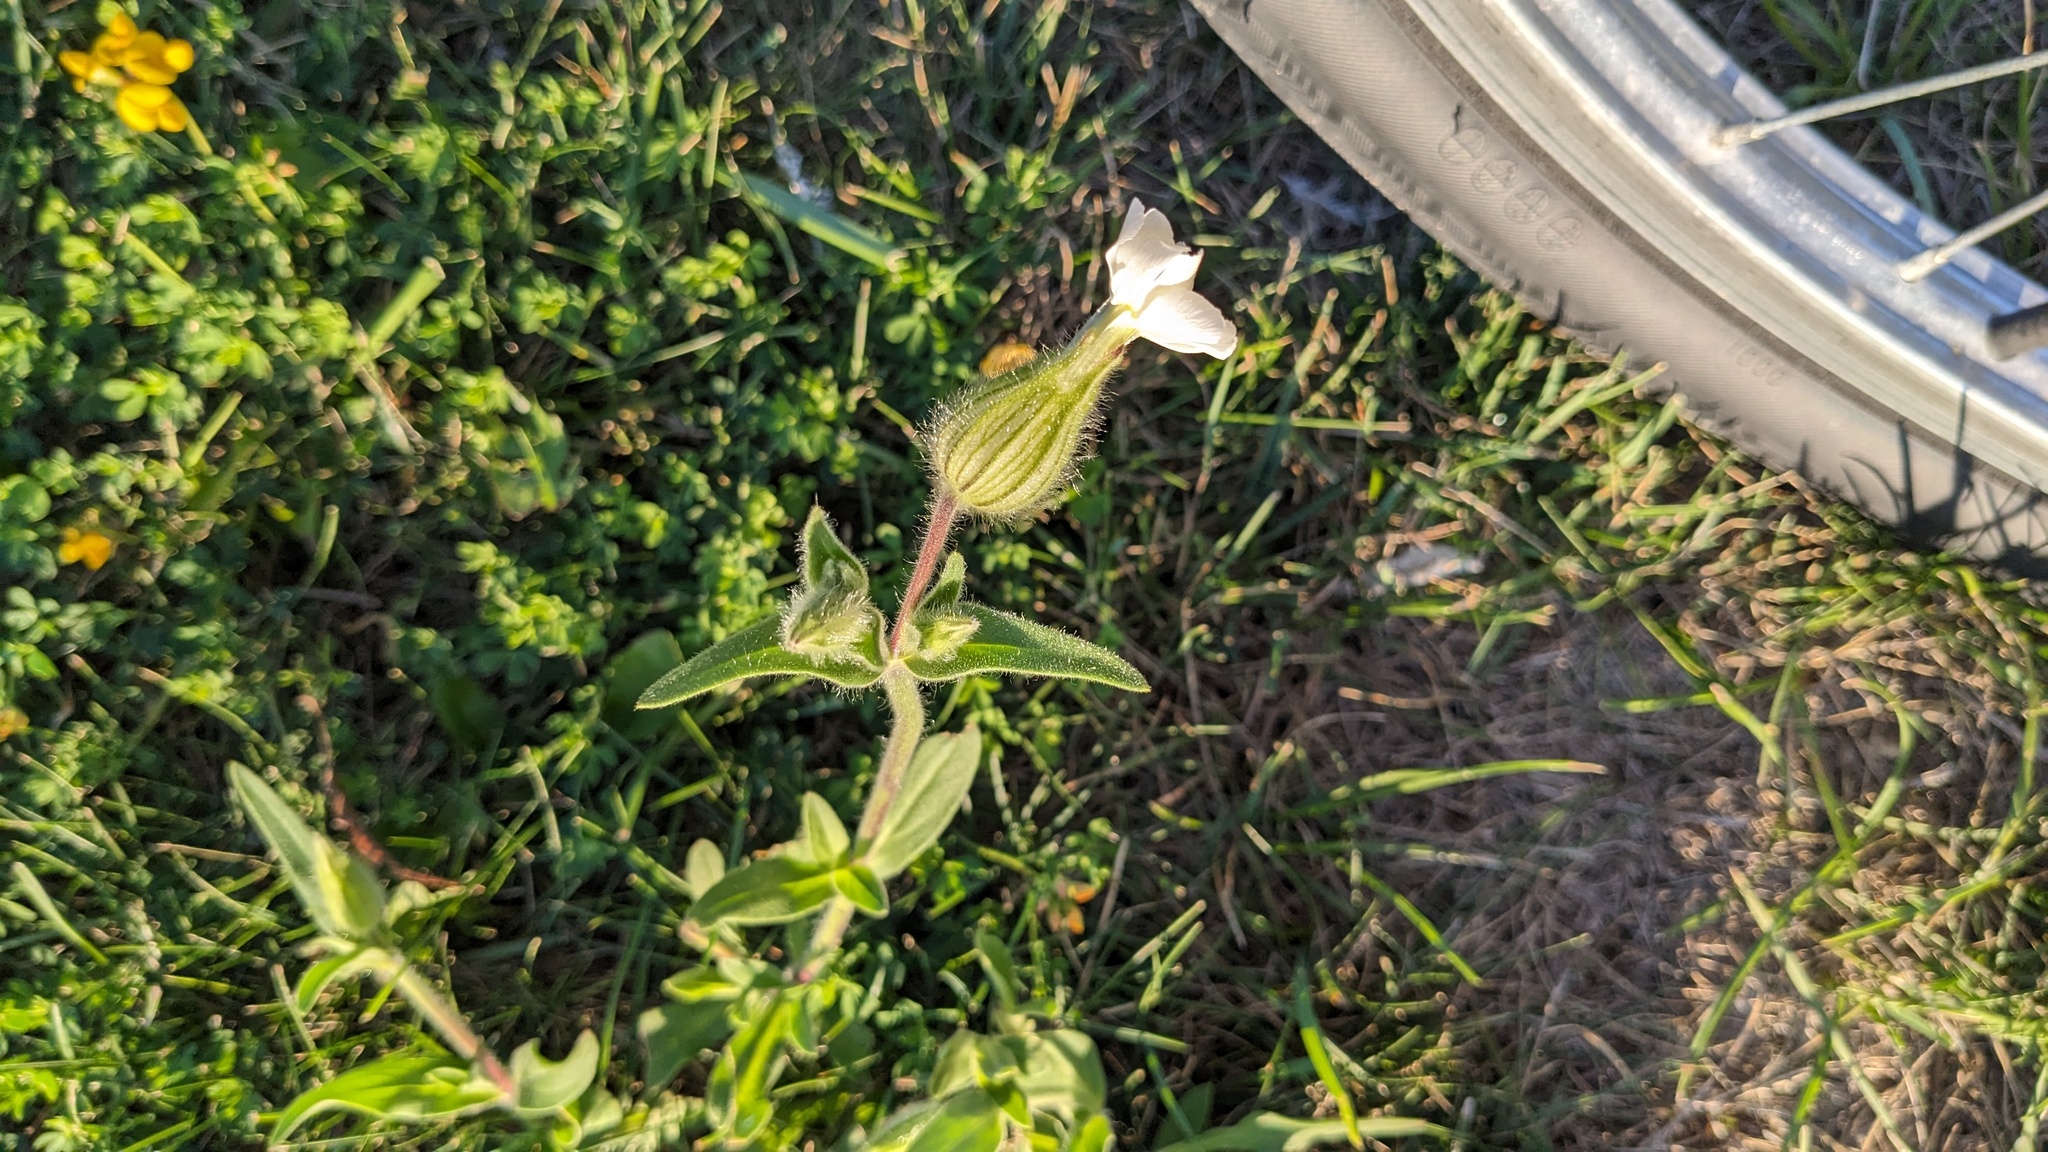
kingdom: Plantae
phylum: Tracheophyta
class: Magnoliopsida
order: Caryophyllales
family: Caryophyllaceae
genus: Silene
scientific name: Silene latifolia
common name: White campion
